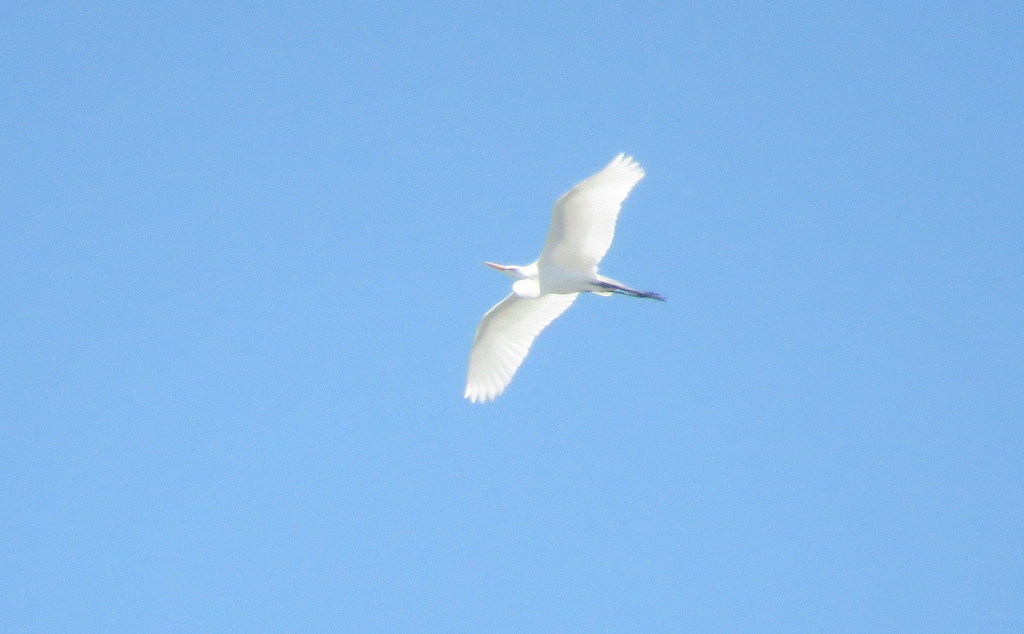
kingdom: Animalia
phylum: Chordata
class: Aves
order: Pelecaniformes
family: Ardeidae
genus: Ardea
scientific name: Ardea alba
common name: Great egret
